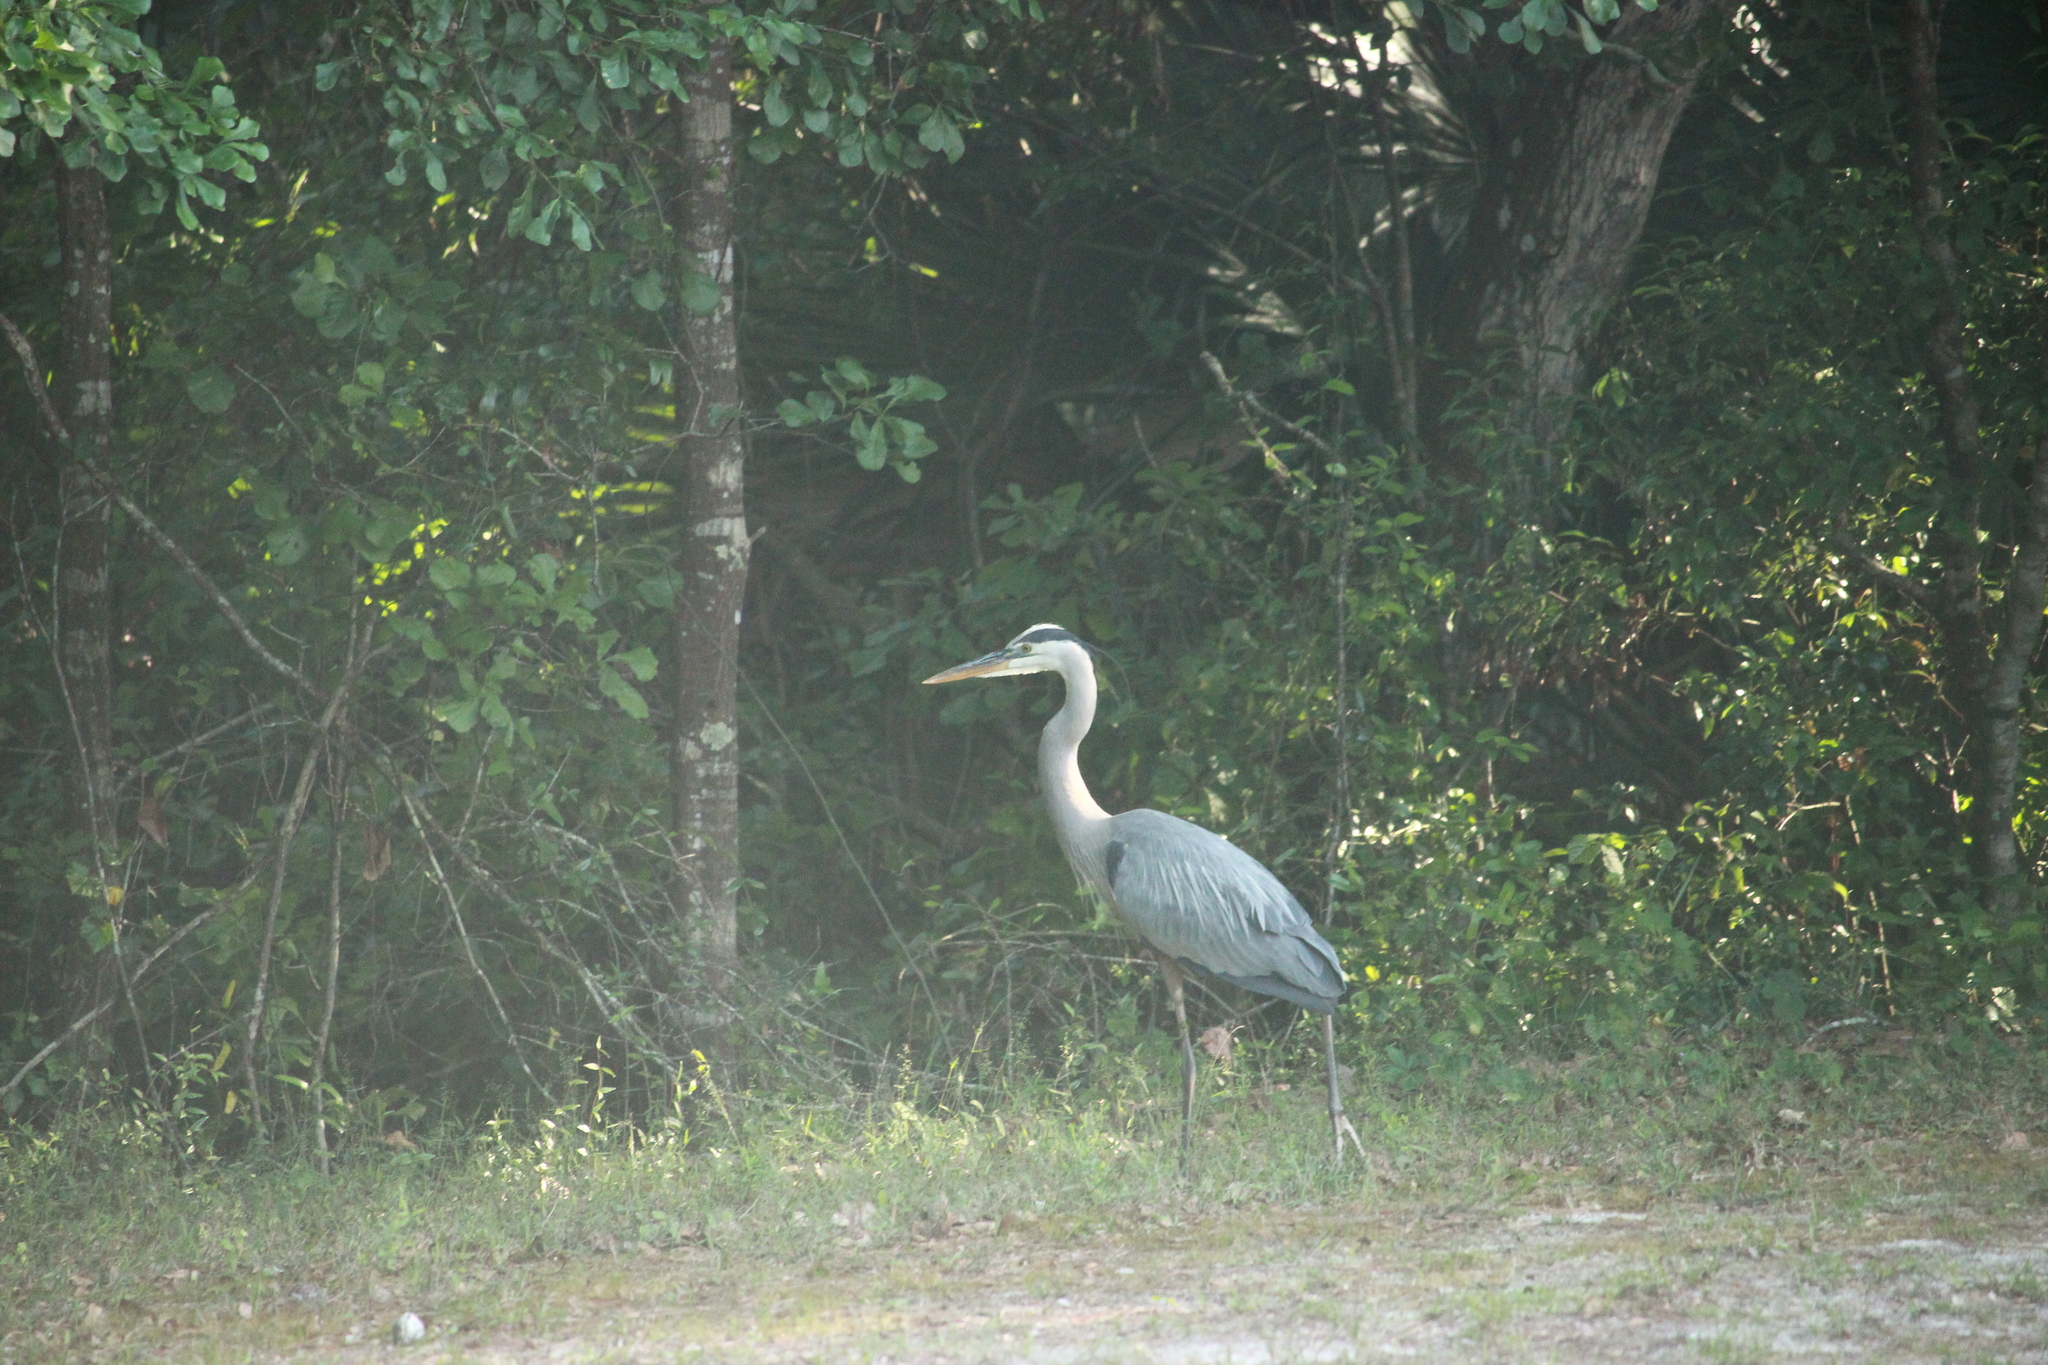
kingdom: Animalia
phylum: Chordata
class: Aves
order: Pelecaniformes
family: Ardeidae
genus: Ardea
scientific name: Ardea herodias
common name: Great blue heron
